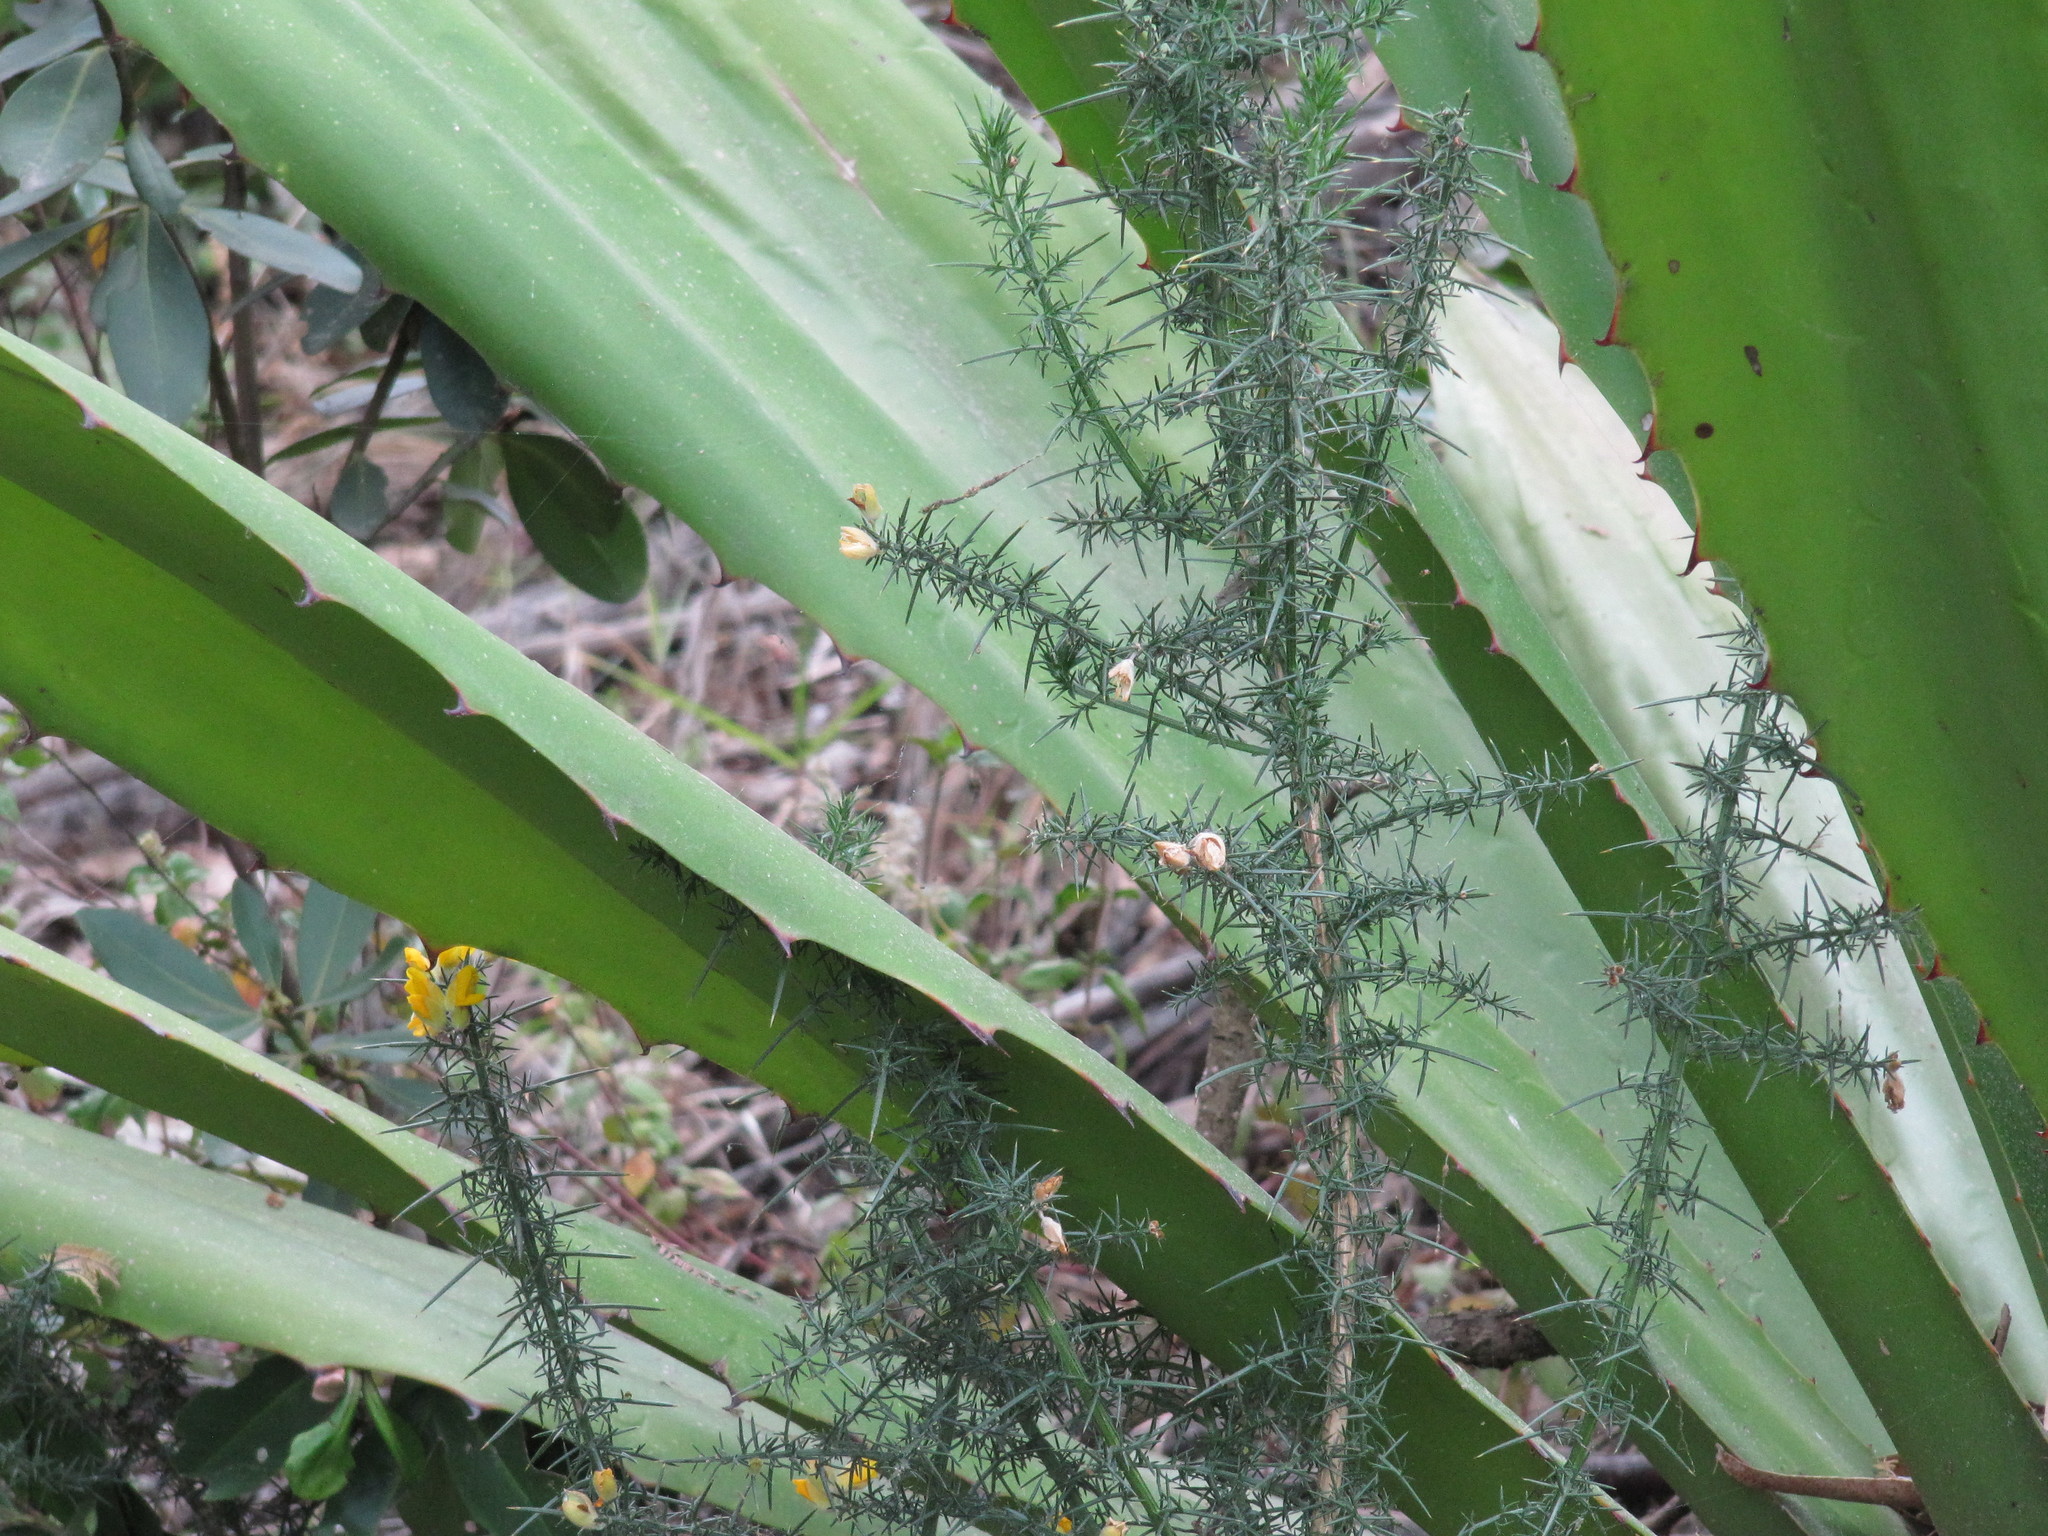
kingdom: Plantae
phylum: Tracheophyta
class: Magnoliopsida
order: Fabales
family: Fabaceae
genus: Ulex
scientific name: Ulex europaeus
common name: Common gorse
